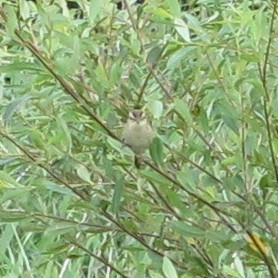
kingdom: Animalia
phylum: Chordata
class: Aves
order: Passeriformes
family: Acrocephalidae
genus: Acrocephalus
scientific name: Acrocephalus schoenobaenus
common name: Sedge warbler
